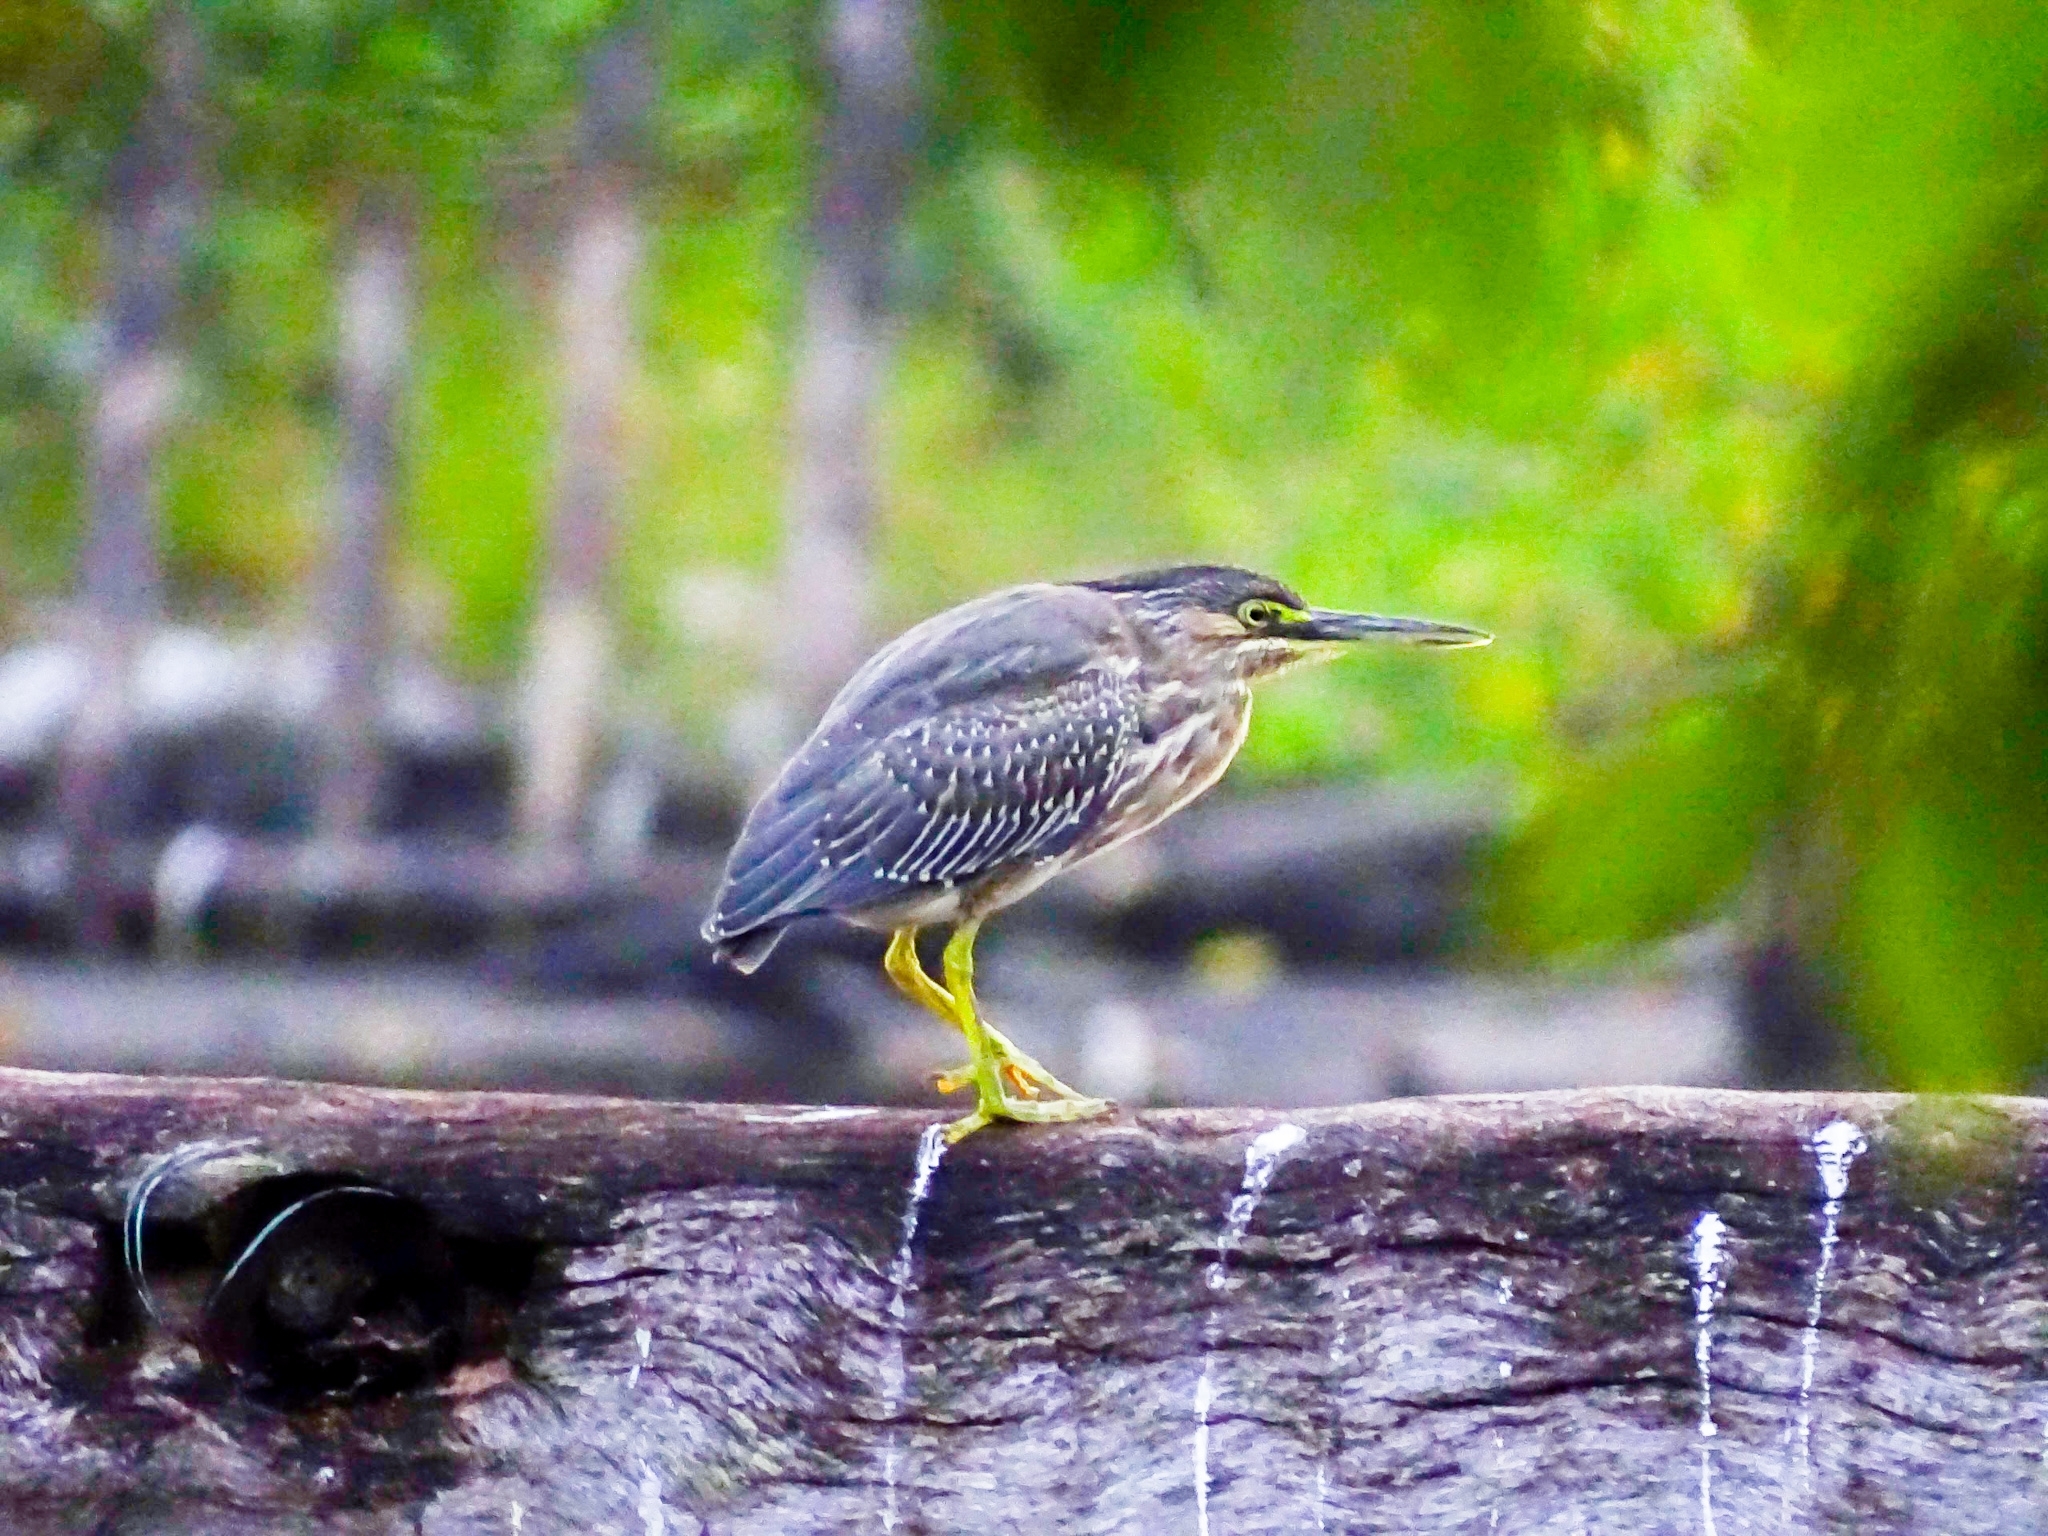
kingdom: Animalia
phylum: Chordata
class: Aves
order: Pelecaniformes
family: Ardeidae
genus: Butorides
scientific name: Butorides striata
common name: Striated heron
